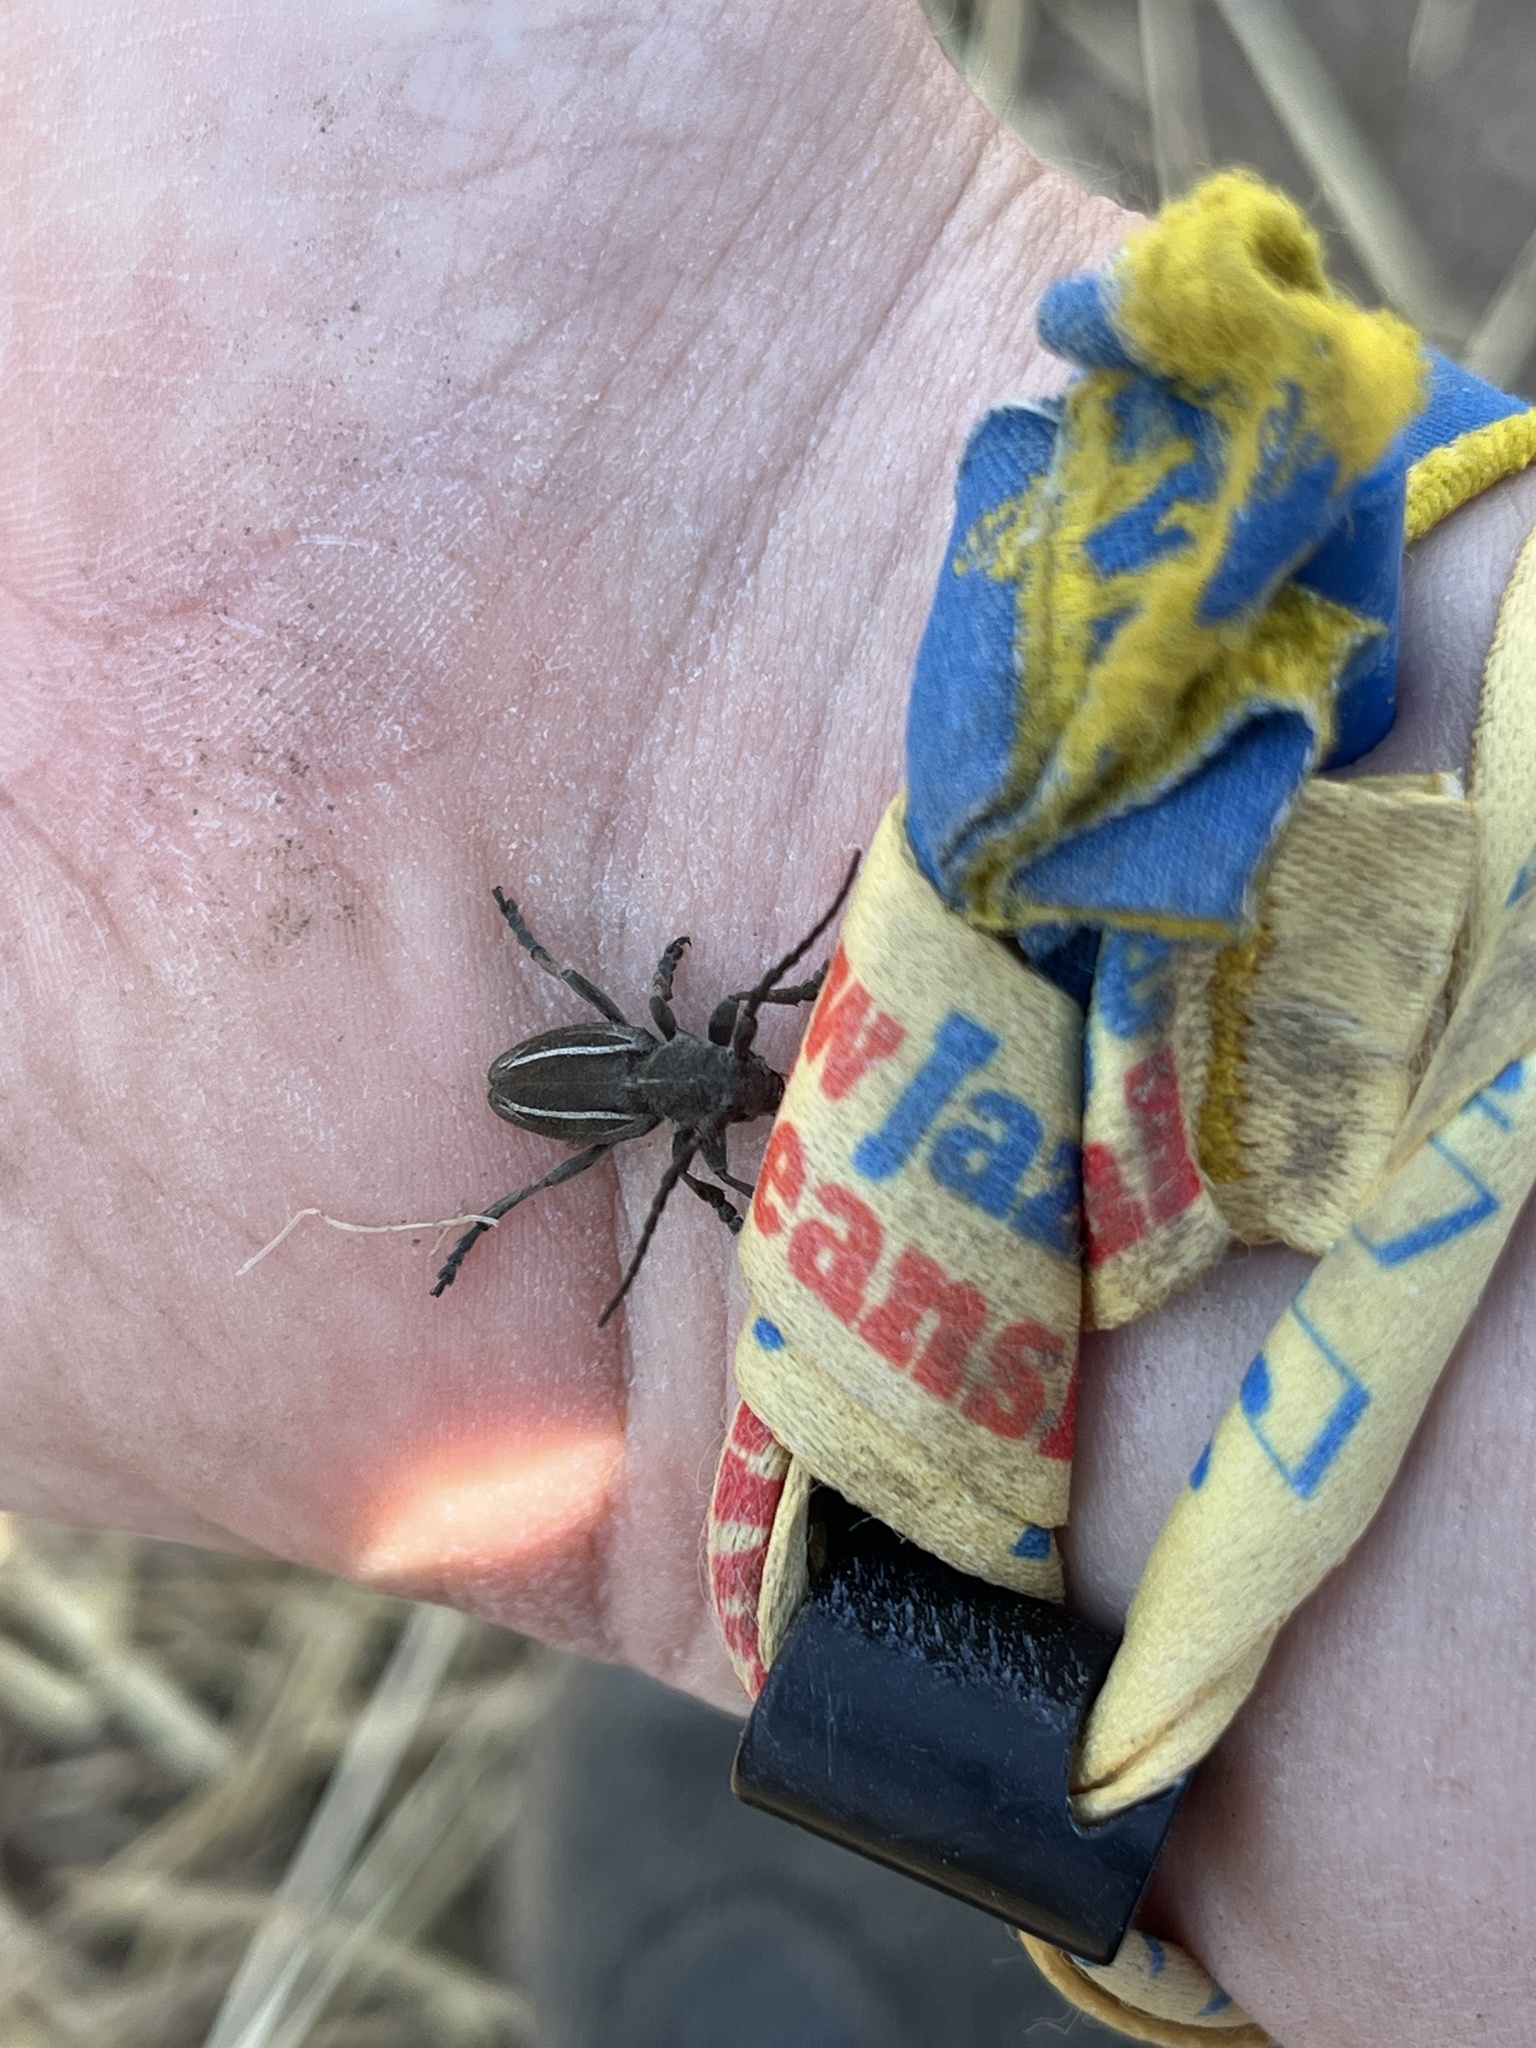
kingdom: Animalia
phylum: Arthropoda
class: Insecta
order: Coleoptera
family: Cerambycidae
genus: Neodorcadion
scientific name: Neodorcadion bilineatum
